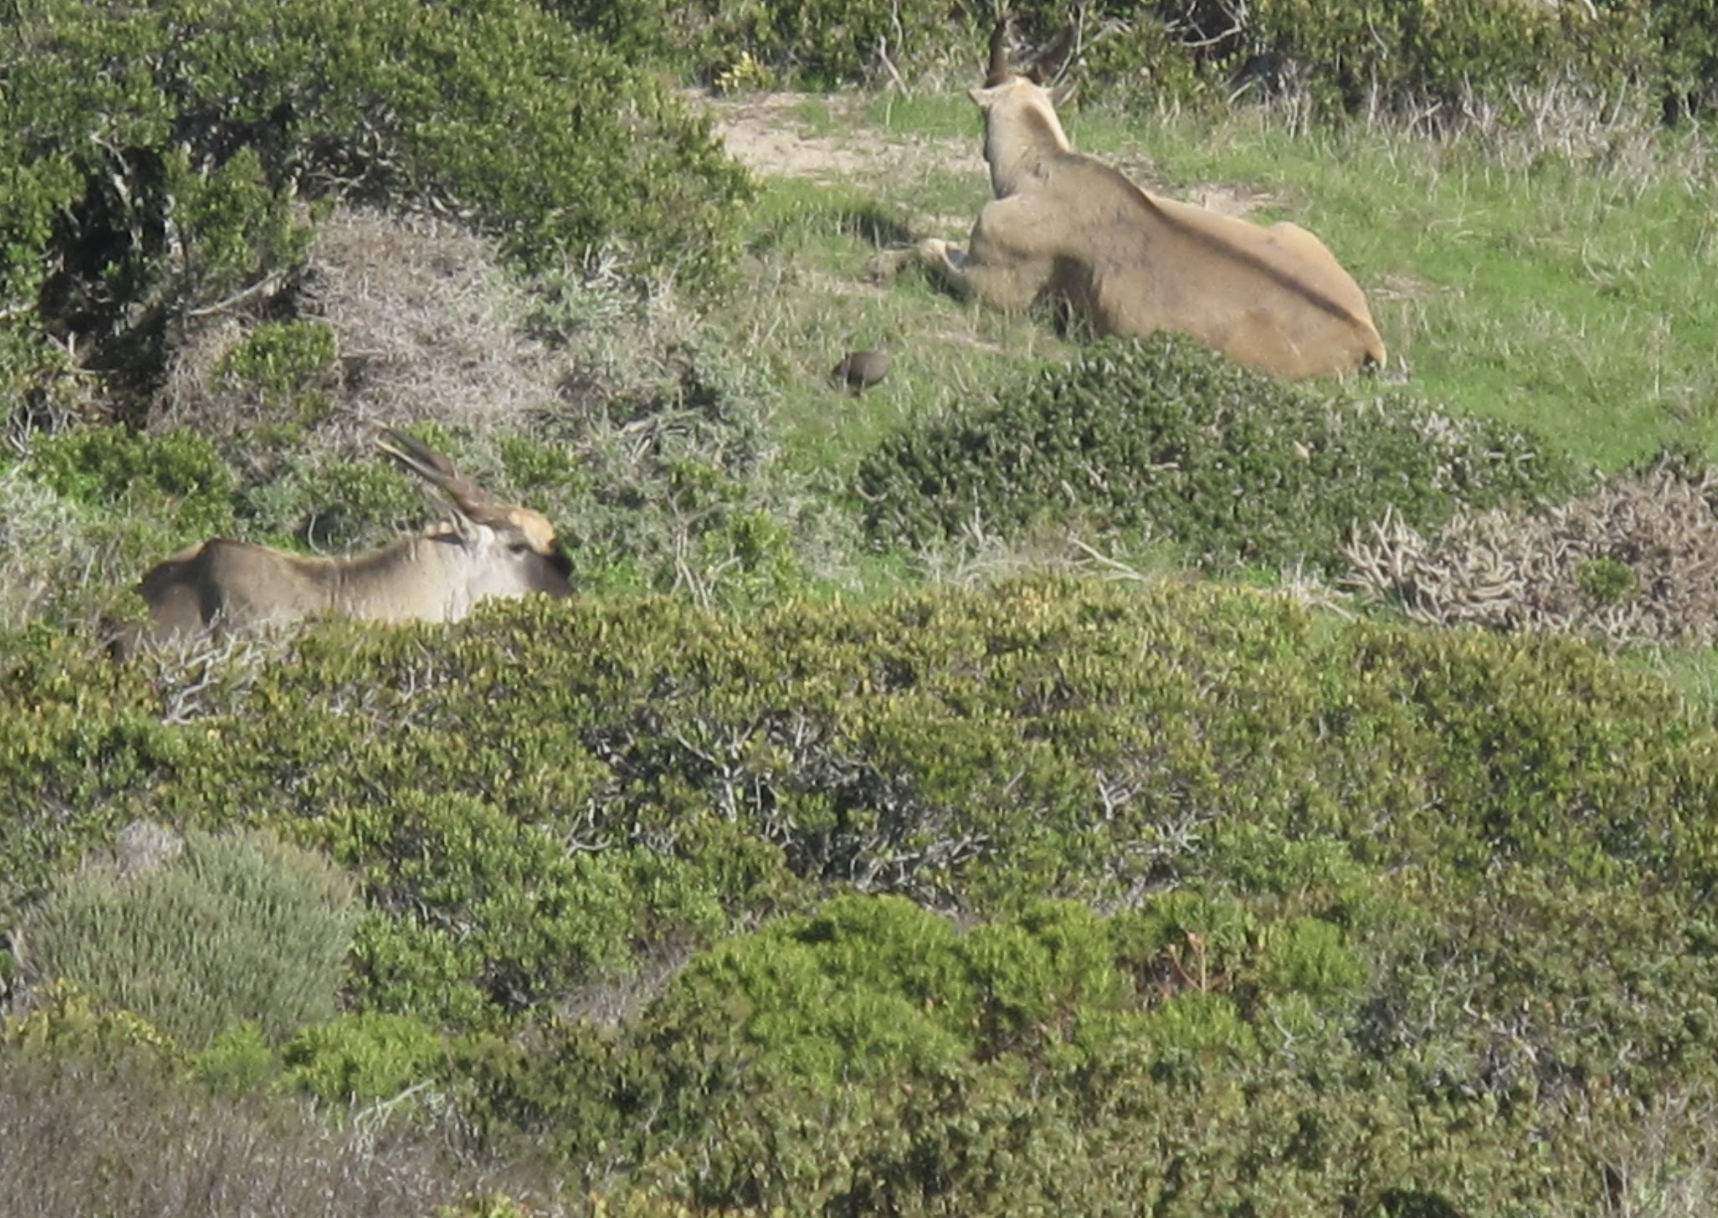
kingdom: Animalia
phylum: Chordata
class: Mammalia
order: Artiodactyla
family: Bovidae
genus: Taurotragus
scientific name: Taurotragus oryx
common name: Common eland
